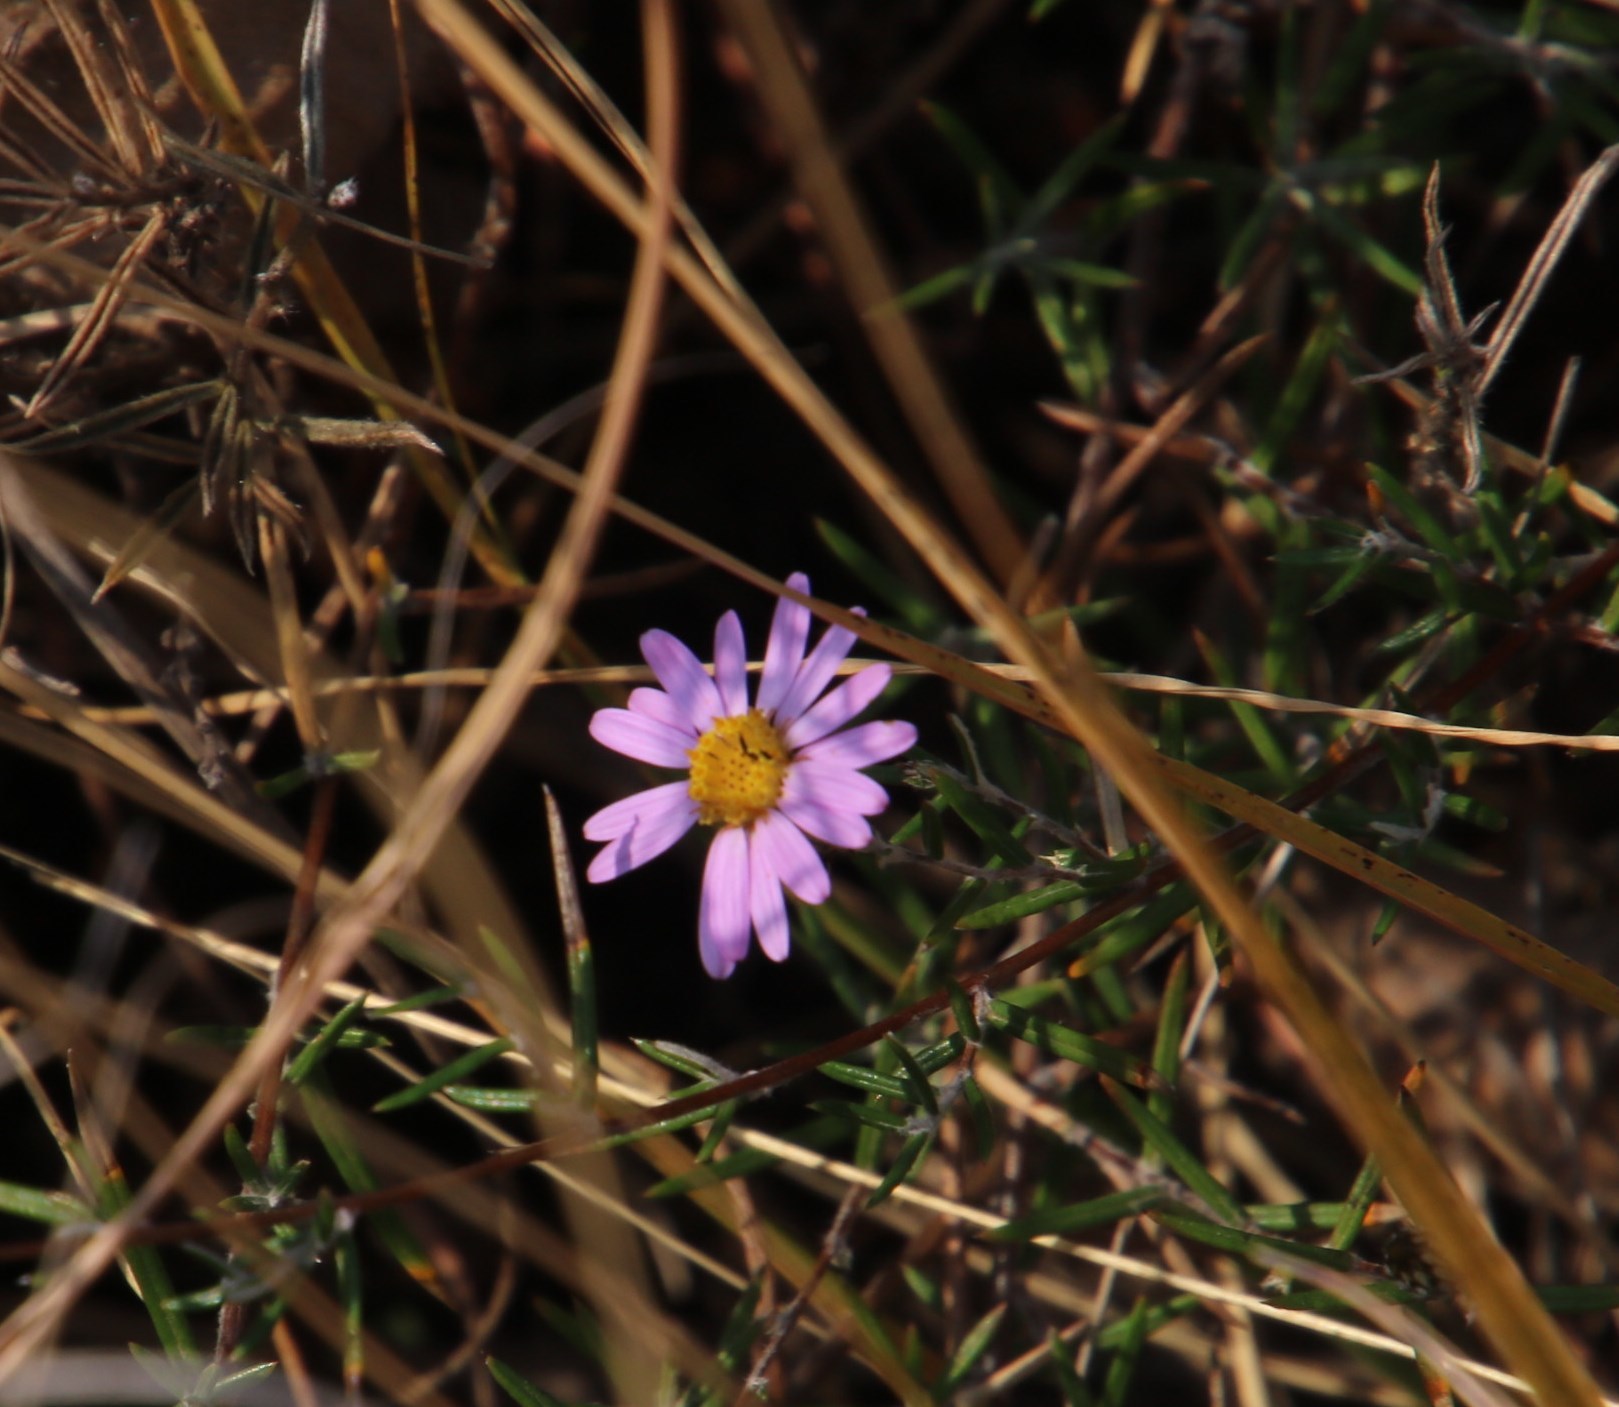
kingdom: Plantae
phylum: Tracheophyta
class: Magnoliopsida
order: Asterales
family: Asteraceae
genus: Athrixia
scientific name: Athrixia elata
